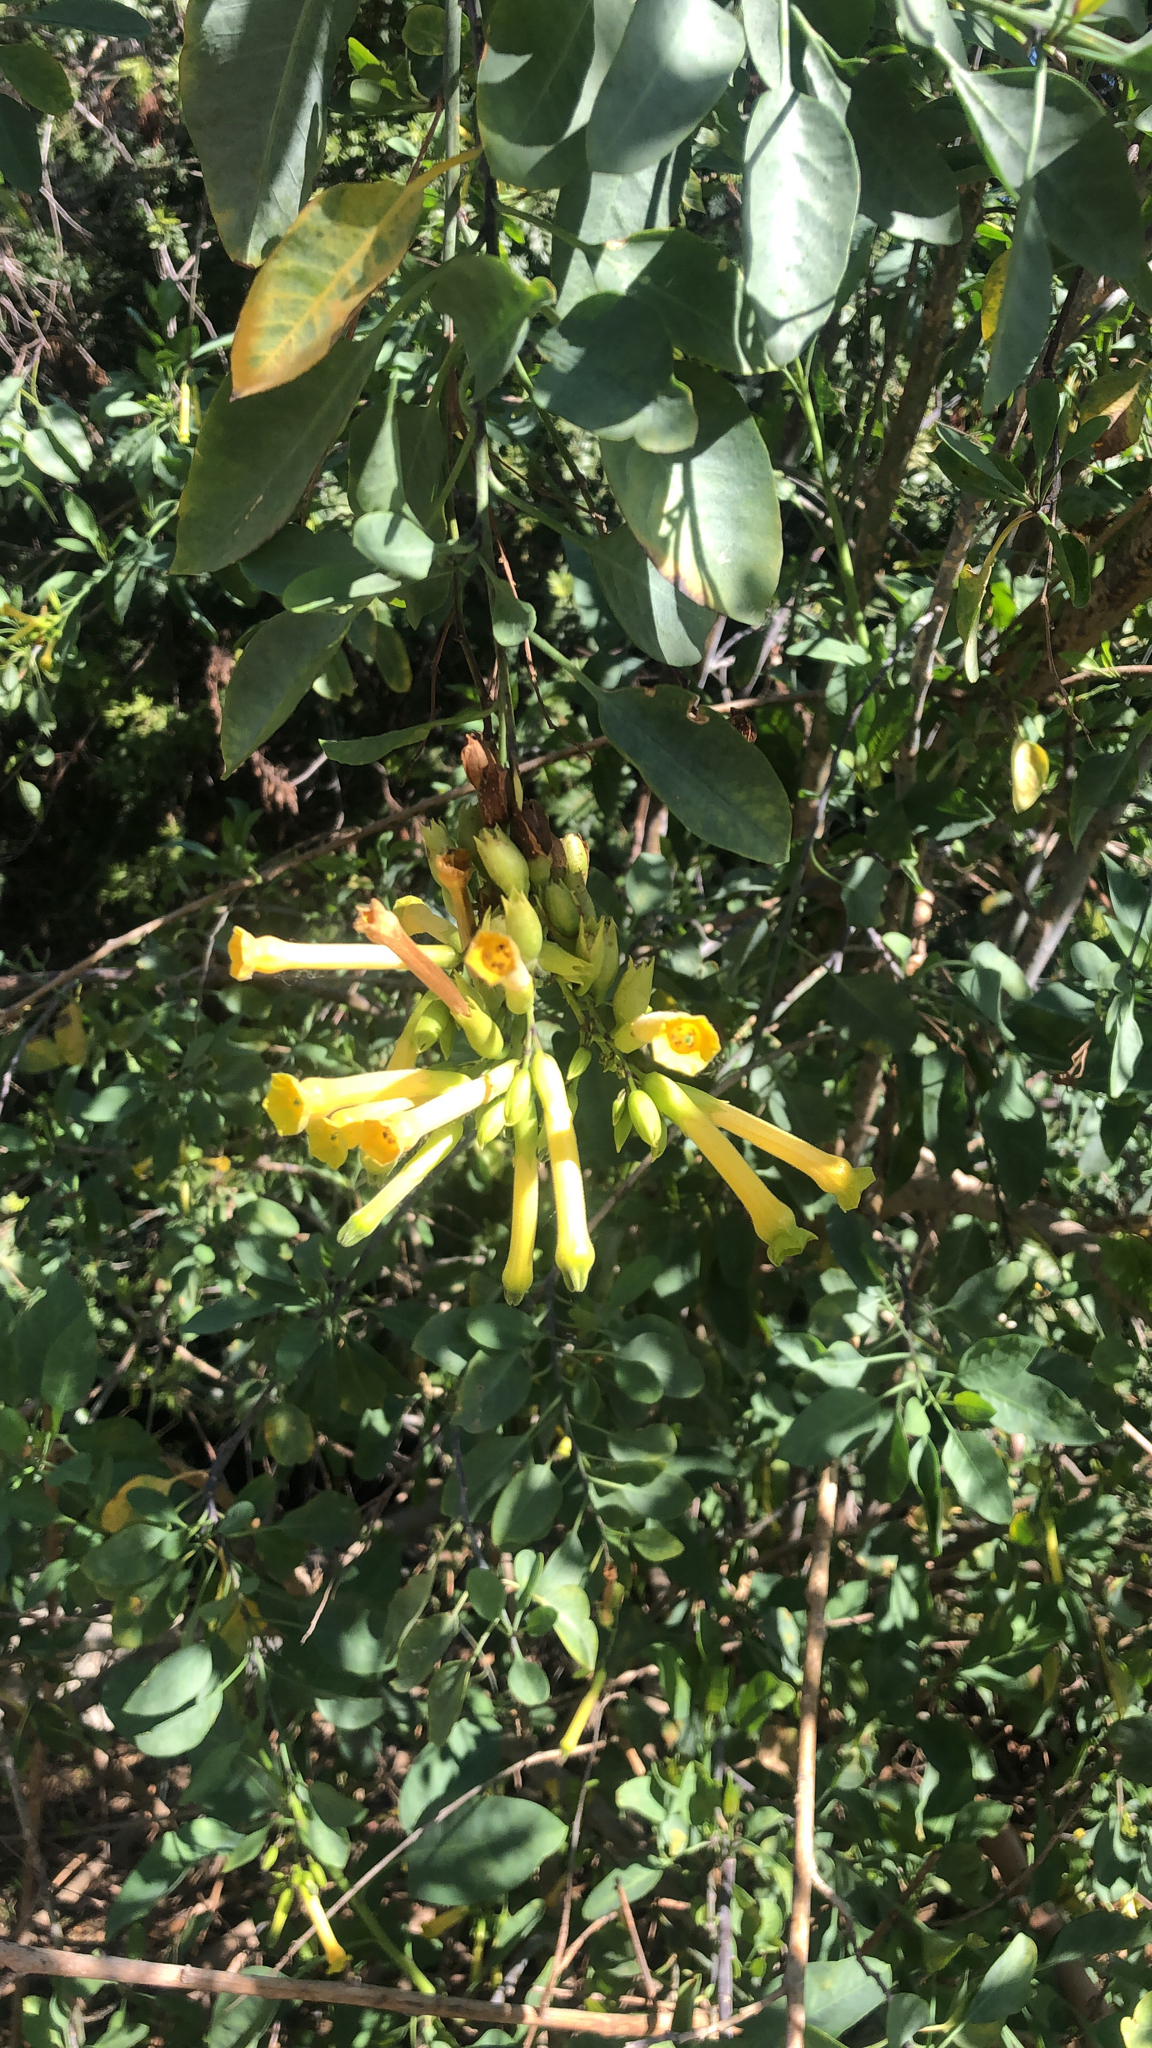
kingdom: Plantae
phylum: Tracheophyta
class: Magnoliopsida
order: Solanales
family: Solanaceae
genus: Nicotiana
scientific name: Nicotiana glauca
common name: Tree tobacco
